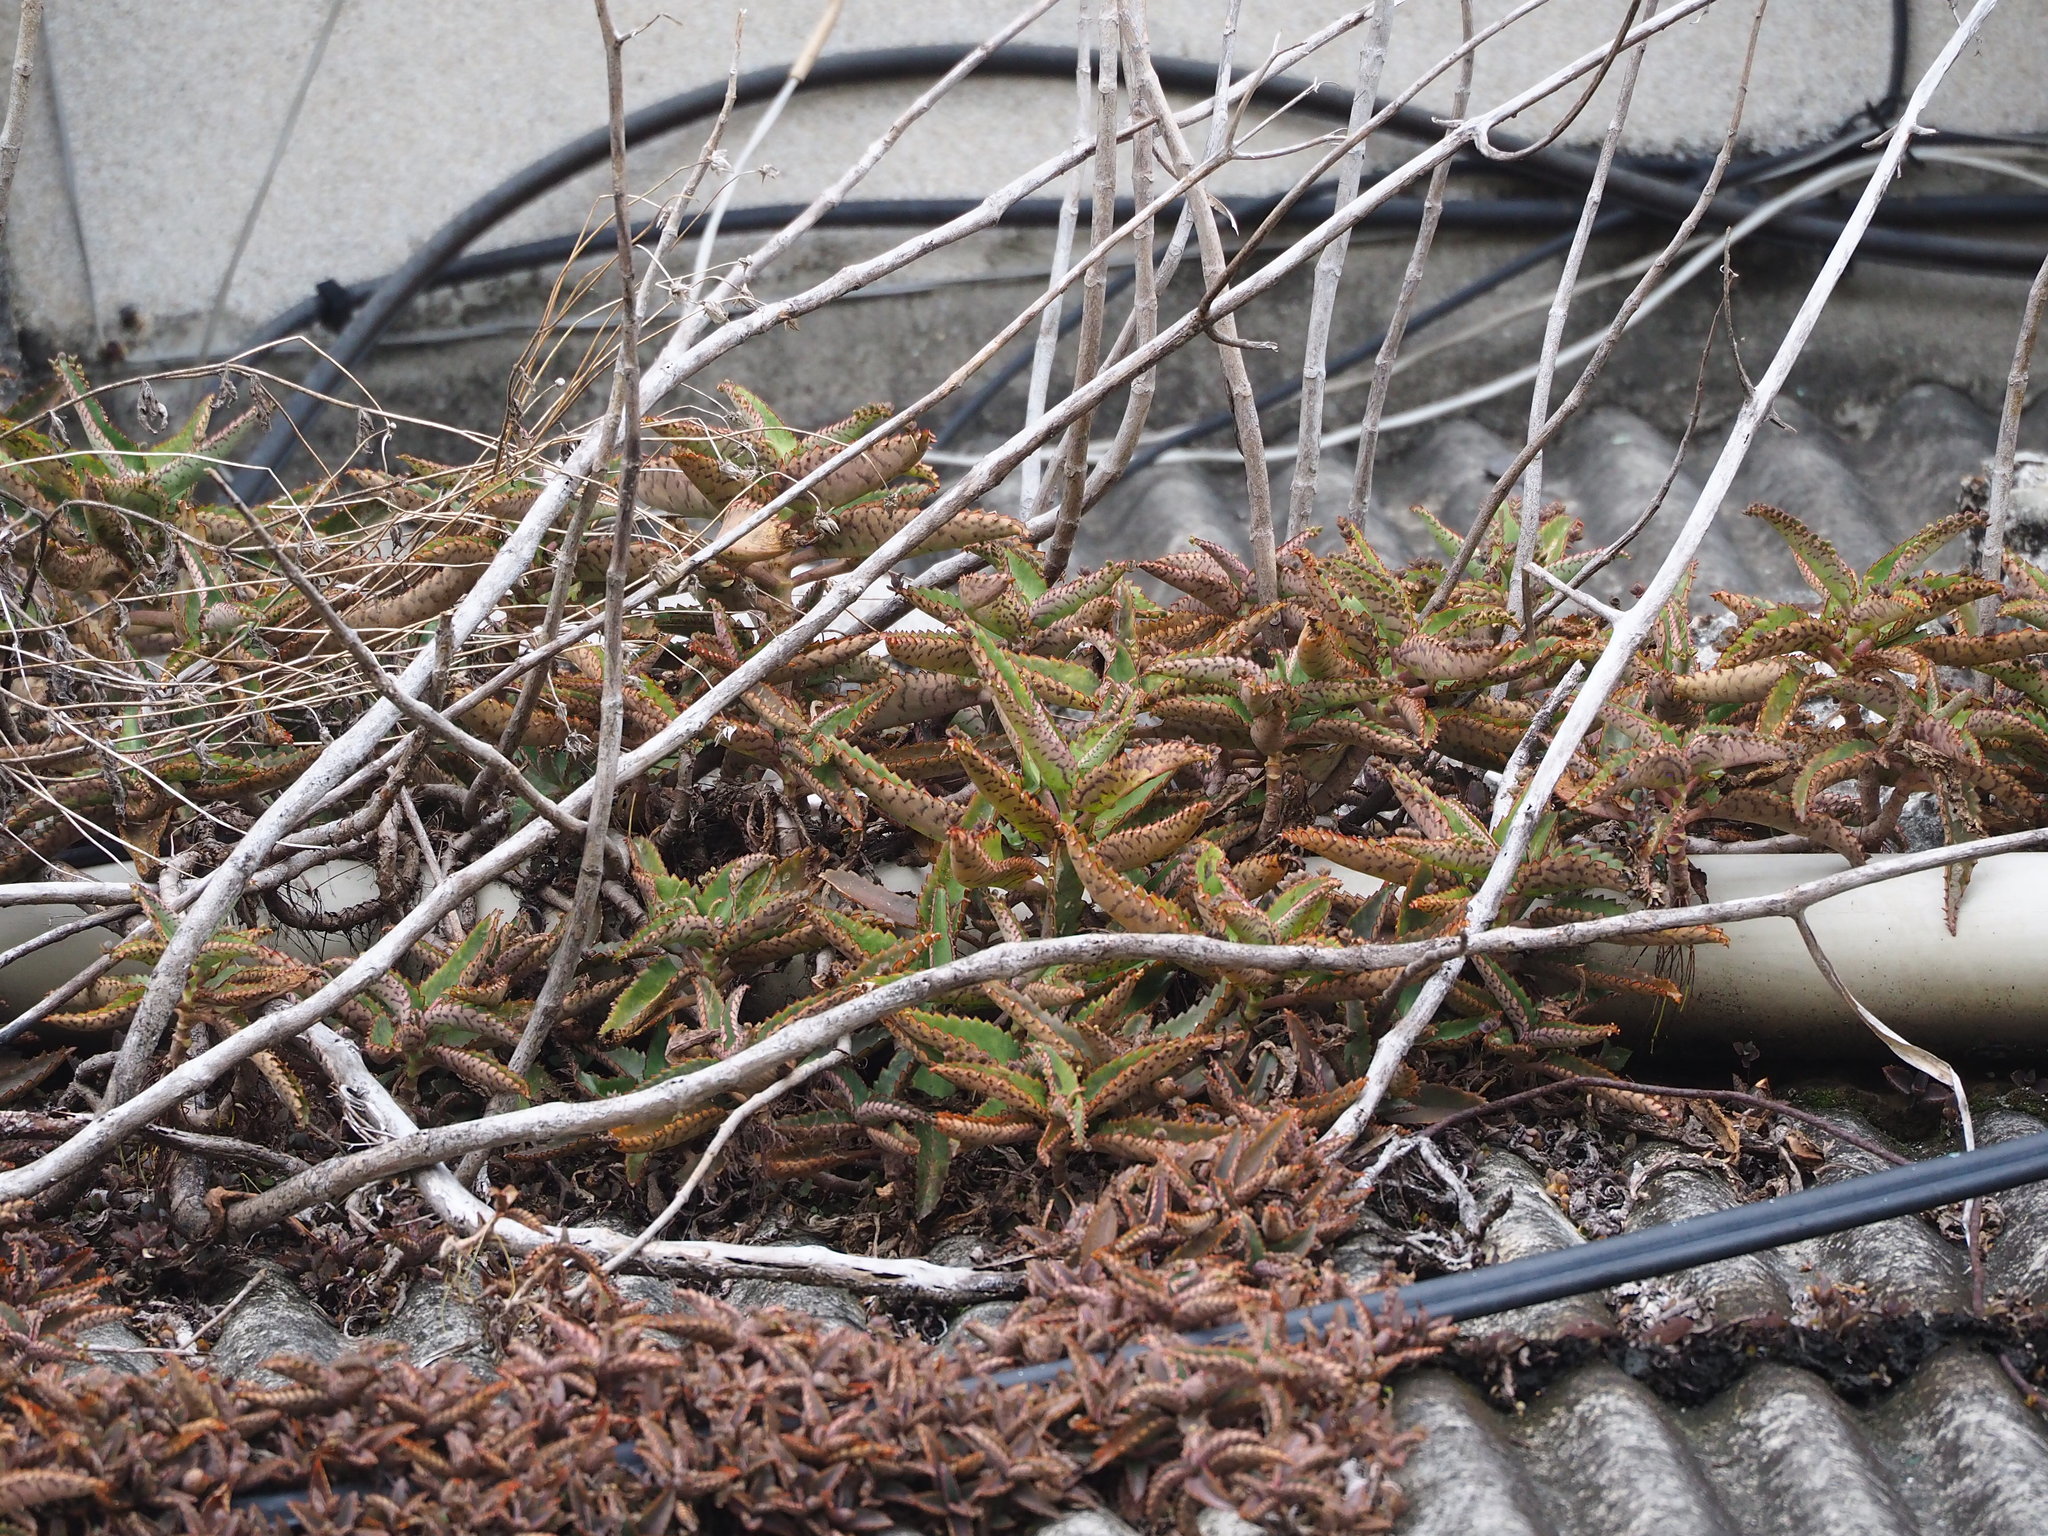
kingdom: Plantae
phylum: Tracheophyta
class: Magnoliopsida
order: Saxifragales
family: Crassulaceae
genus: Kalanchoe
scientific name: Kalanchoe daigremontiana
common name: Devil's backbone
